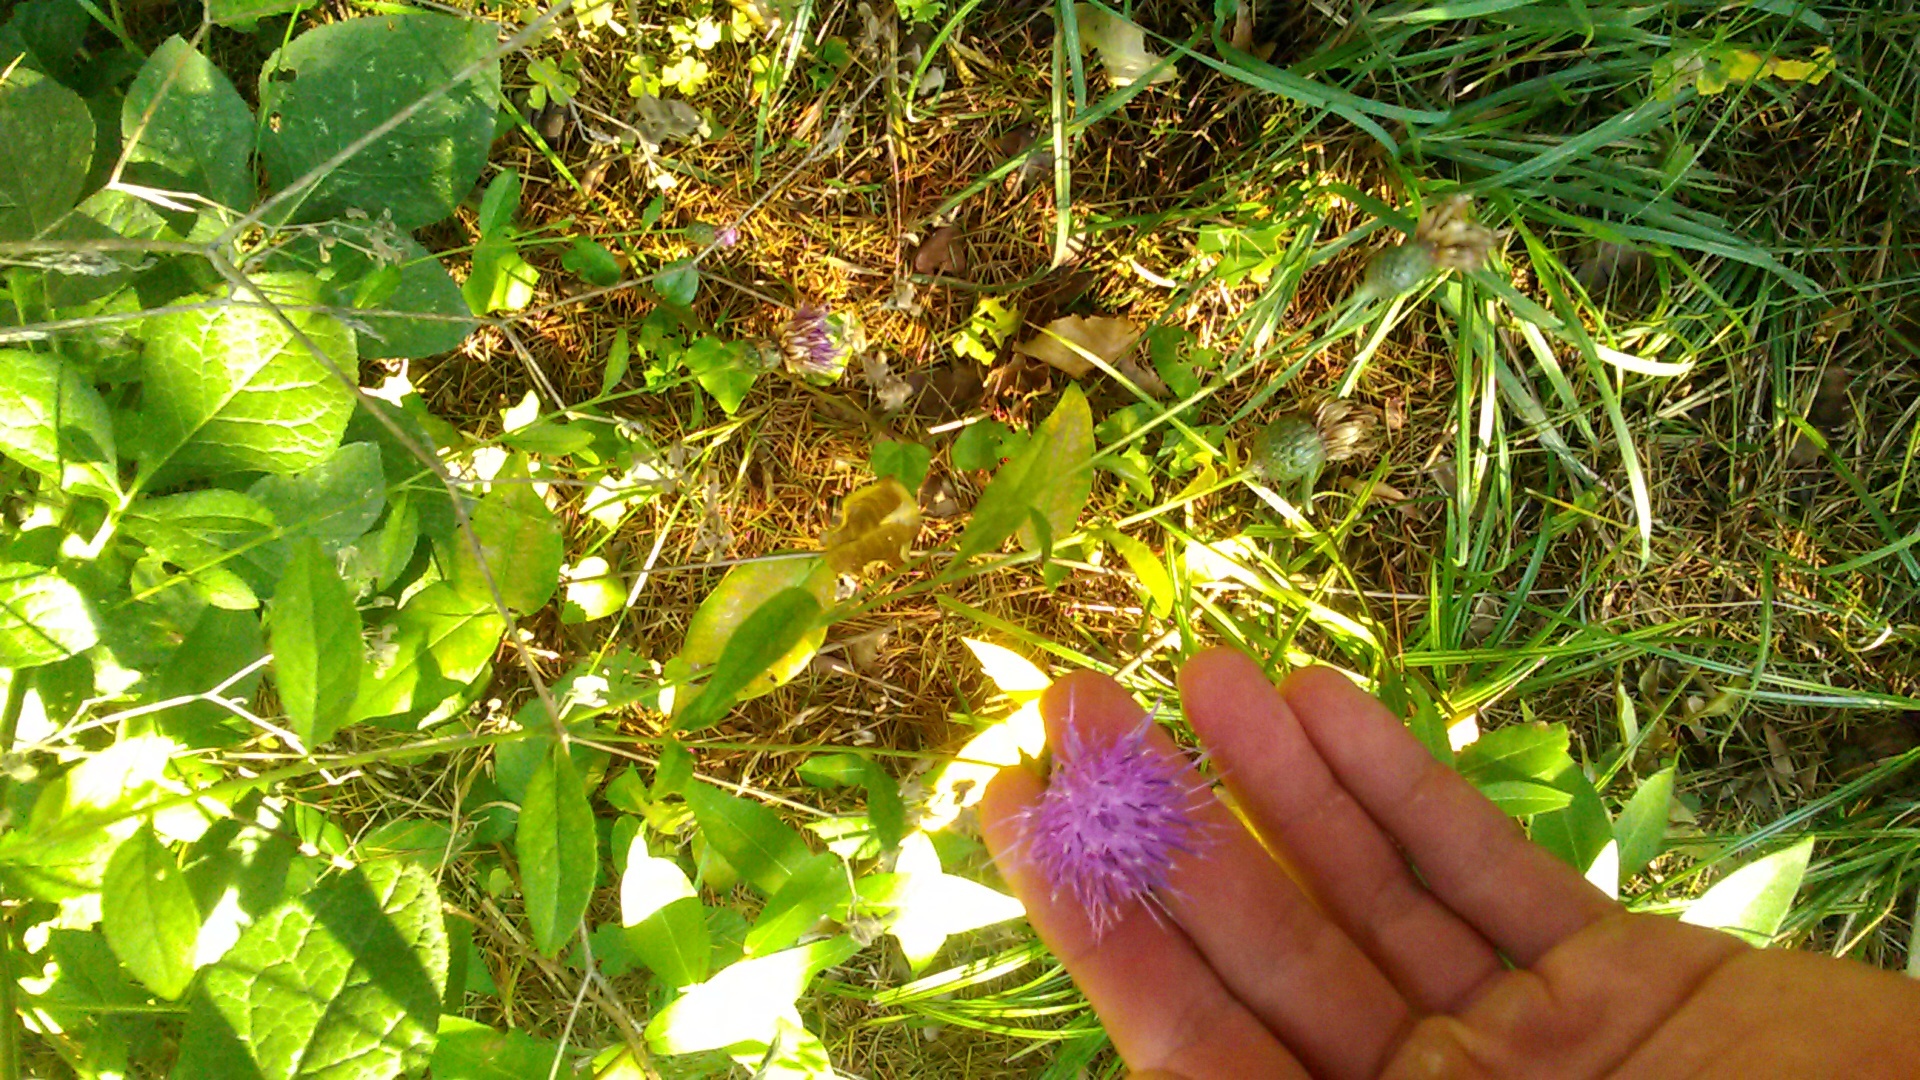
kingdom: Plantae
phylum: Tracheophyta
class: Magnoliopsida
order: Asterales
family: Asteraceae
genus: Klasea
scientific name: Klasea quinquefolia
